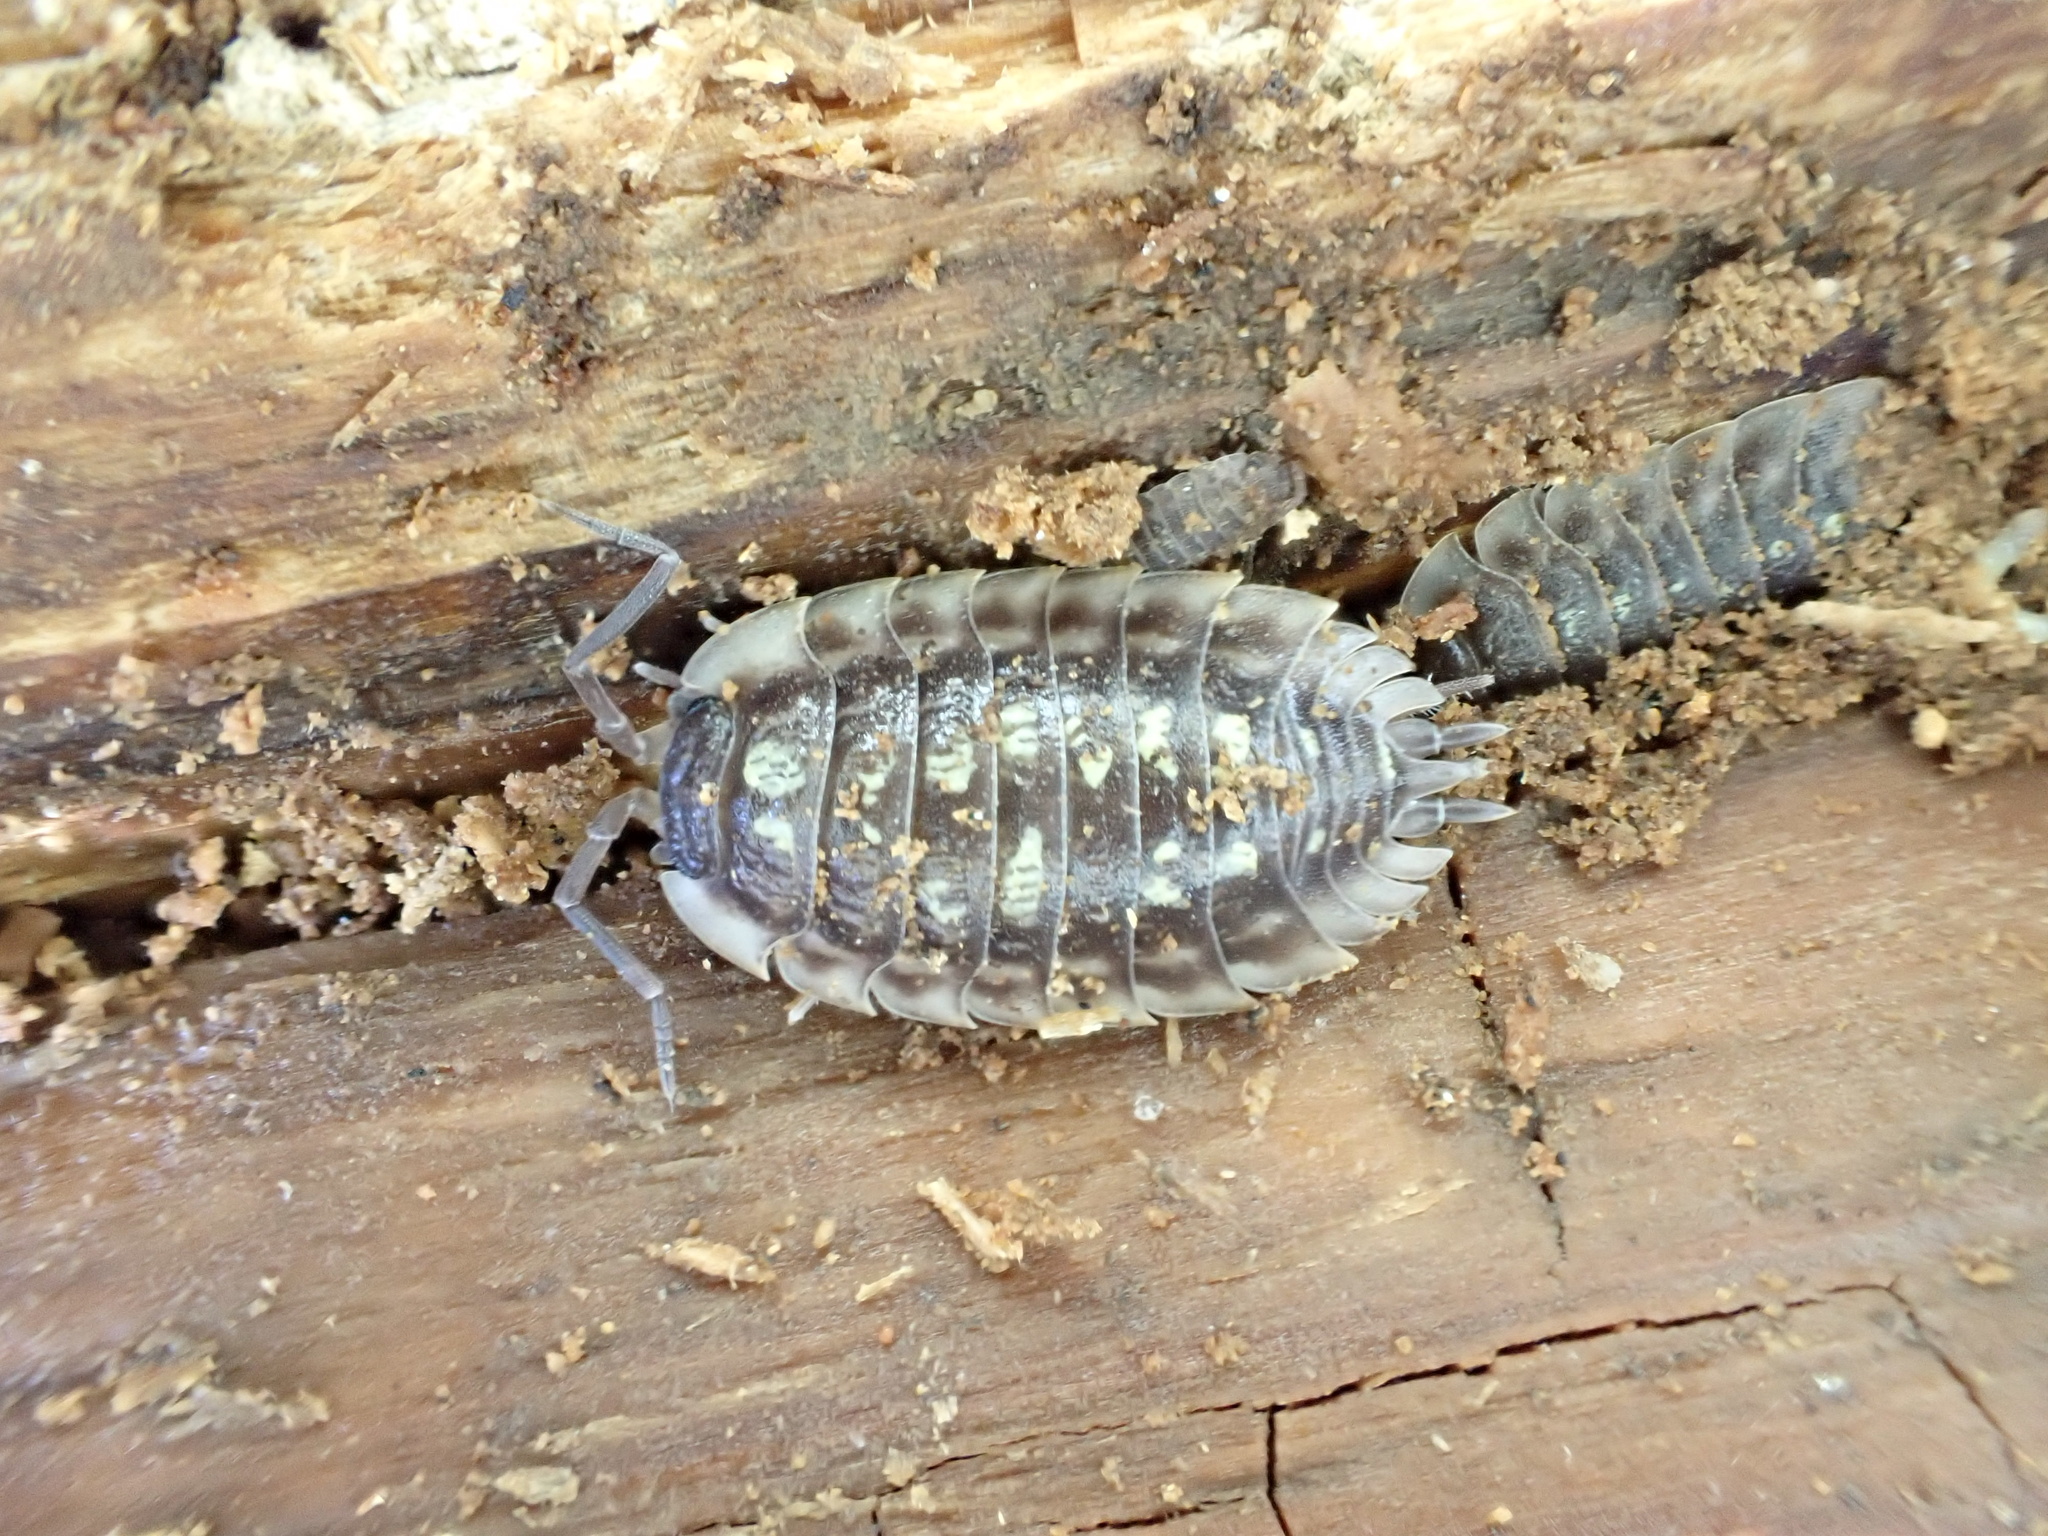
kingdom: Animalia
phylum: Arthropoda
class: Malacostraca
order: Isopoda
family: Oniscidae
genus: Oniscus
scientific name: Oniscus asellus
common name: Common shiny woodlouse
